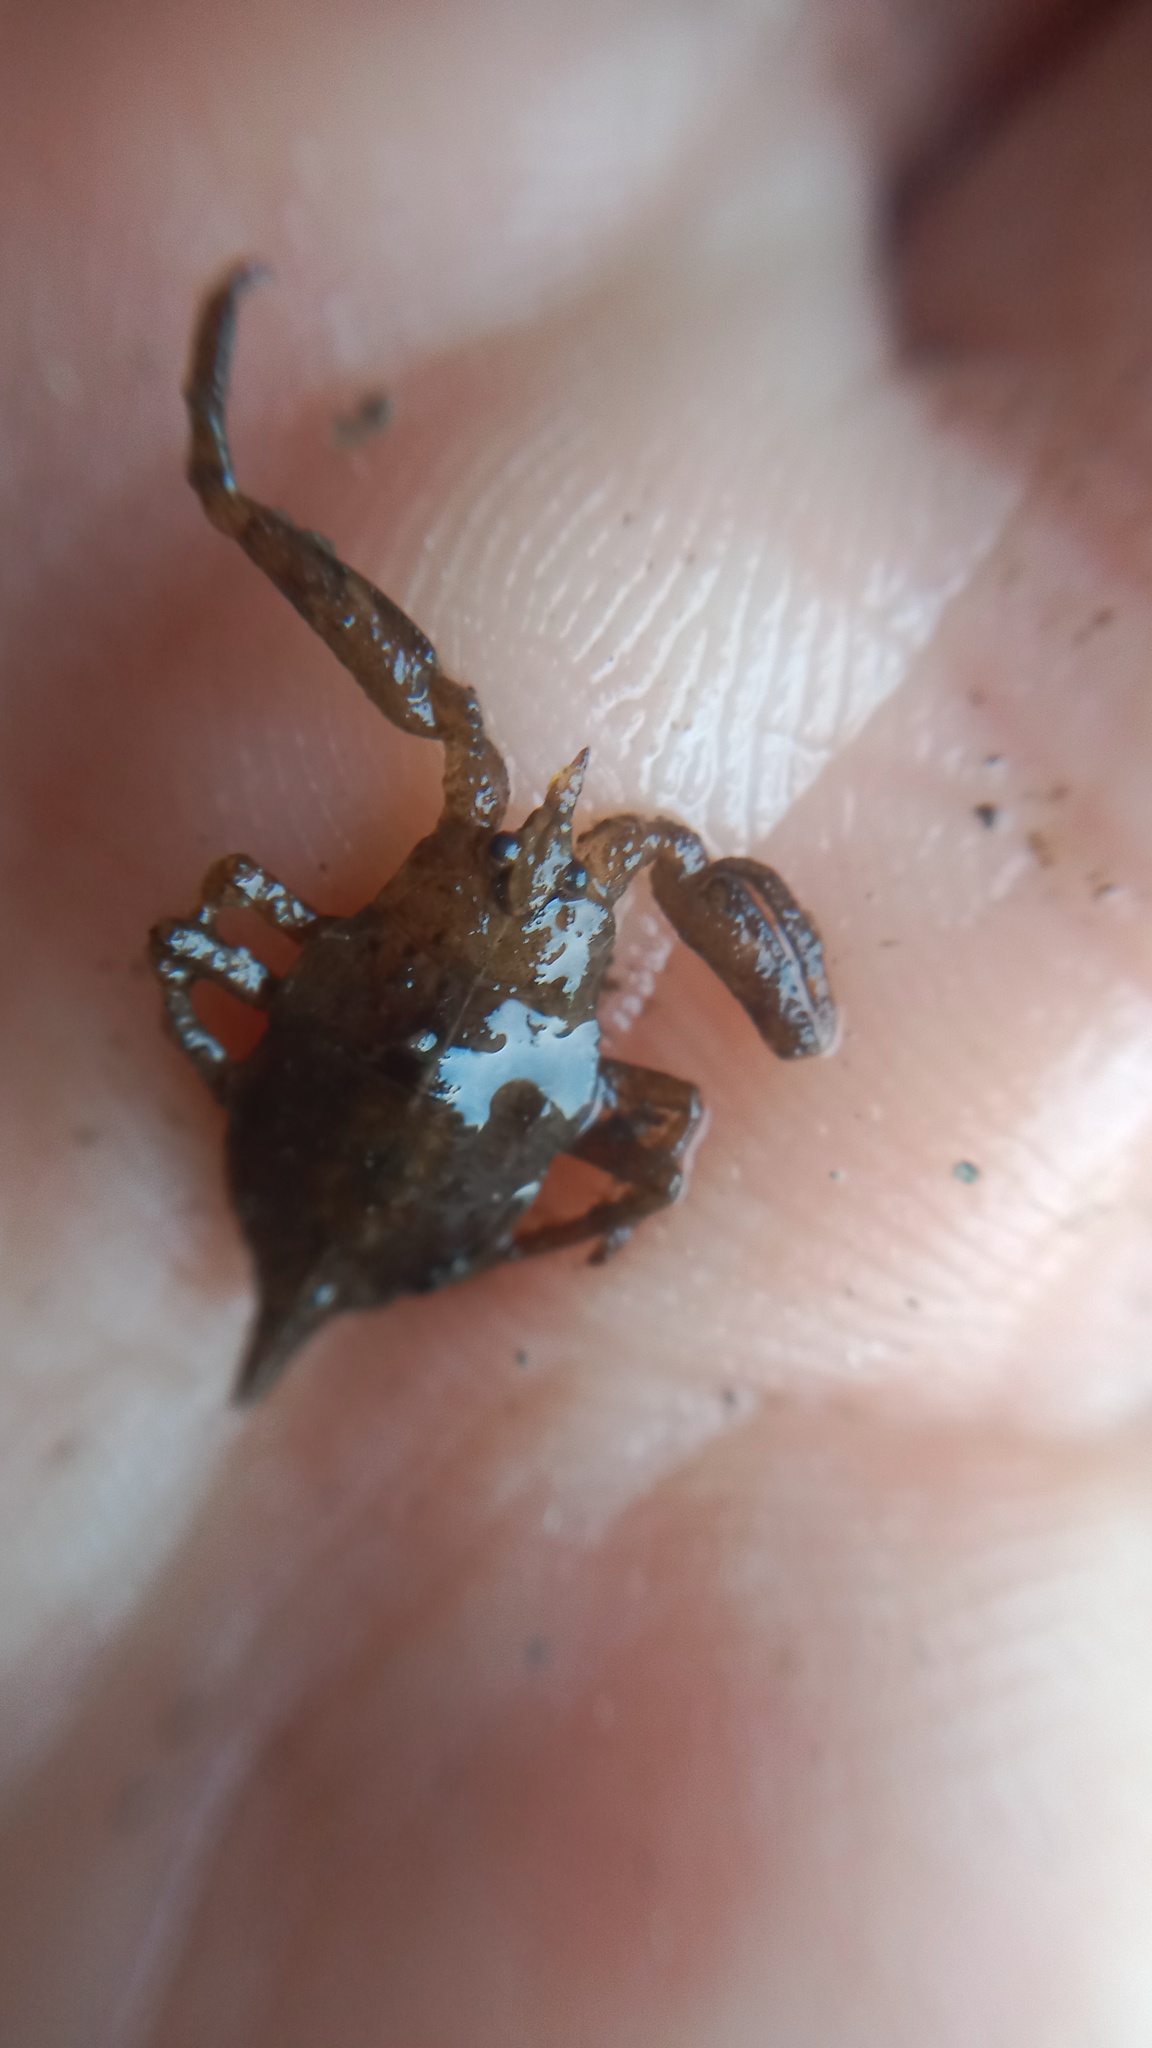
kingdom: Animalia
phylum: Arthropoda
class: Insecta
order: Hemiptera
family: Nepidae
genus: Nepa
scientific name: Nepa cinerea
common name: Water scorpion
